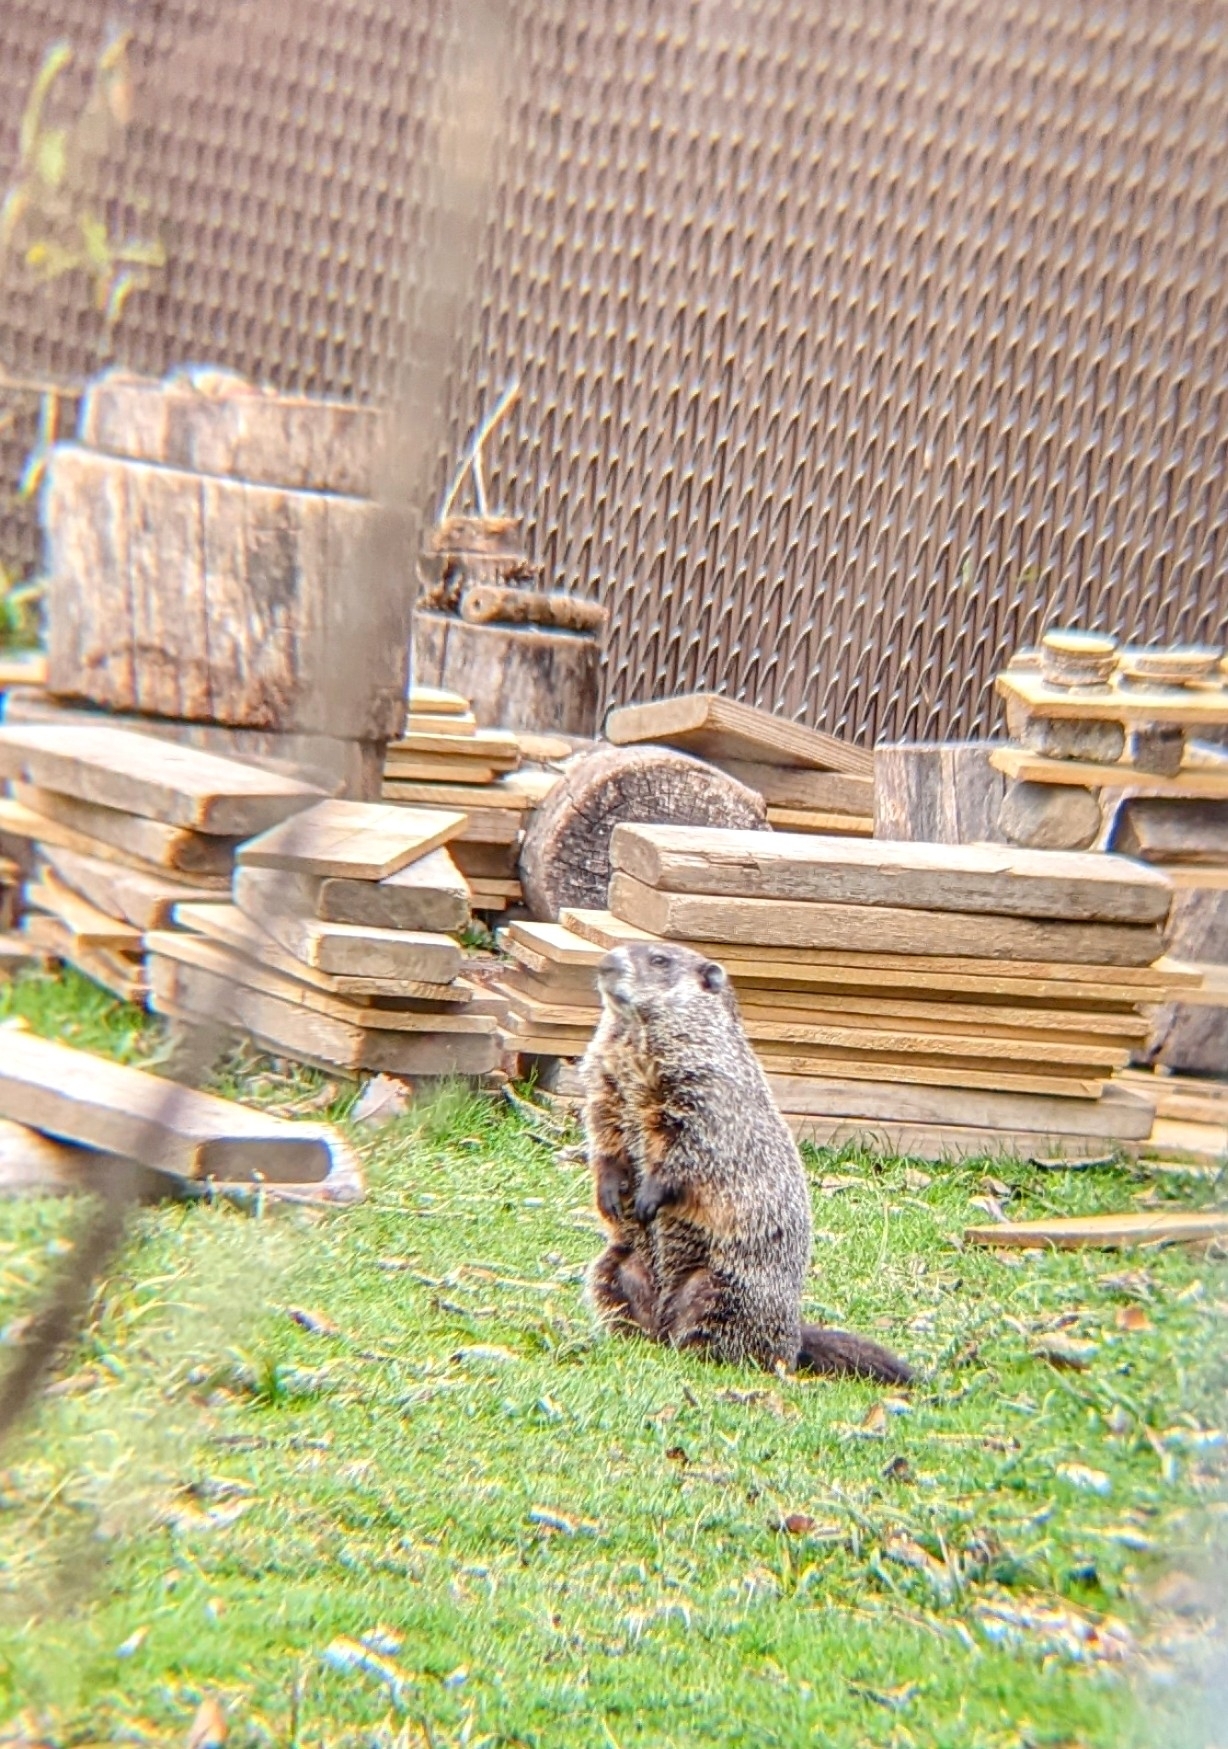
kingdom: Animalia
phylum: Chordata
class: Mammalia
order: Rodentia
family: Sciuridae
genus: Marmota
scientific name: Marmota monax
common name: Groundhog
